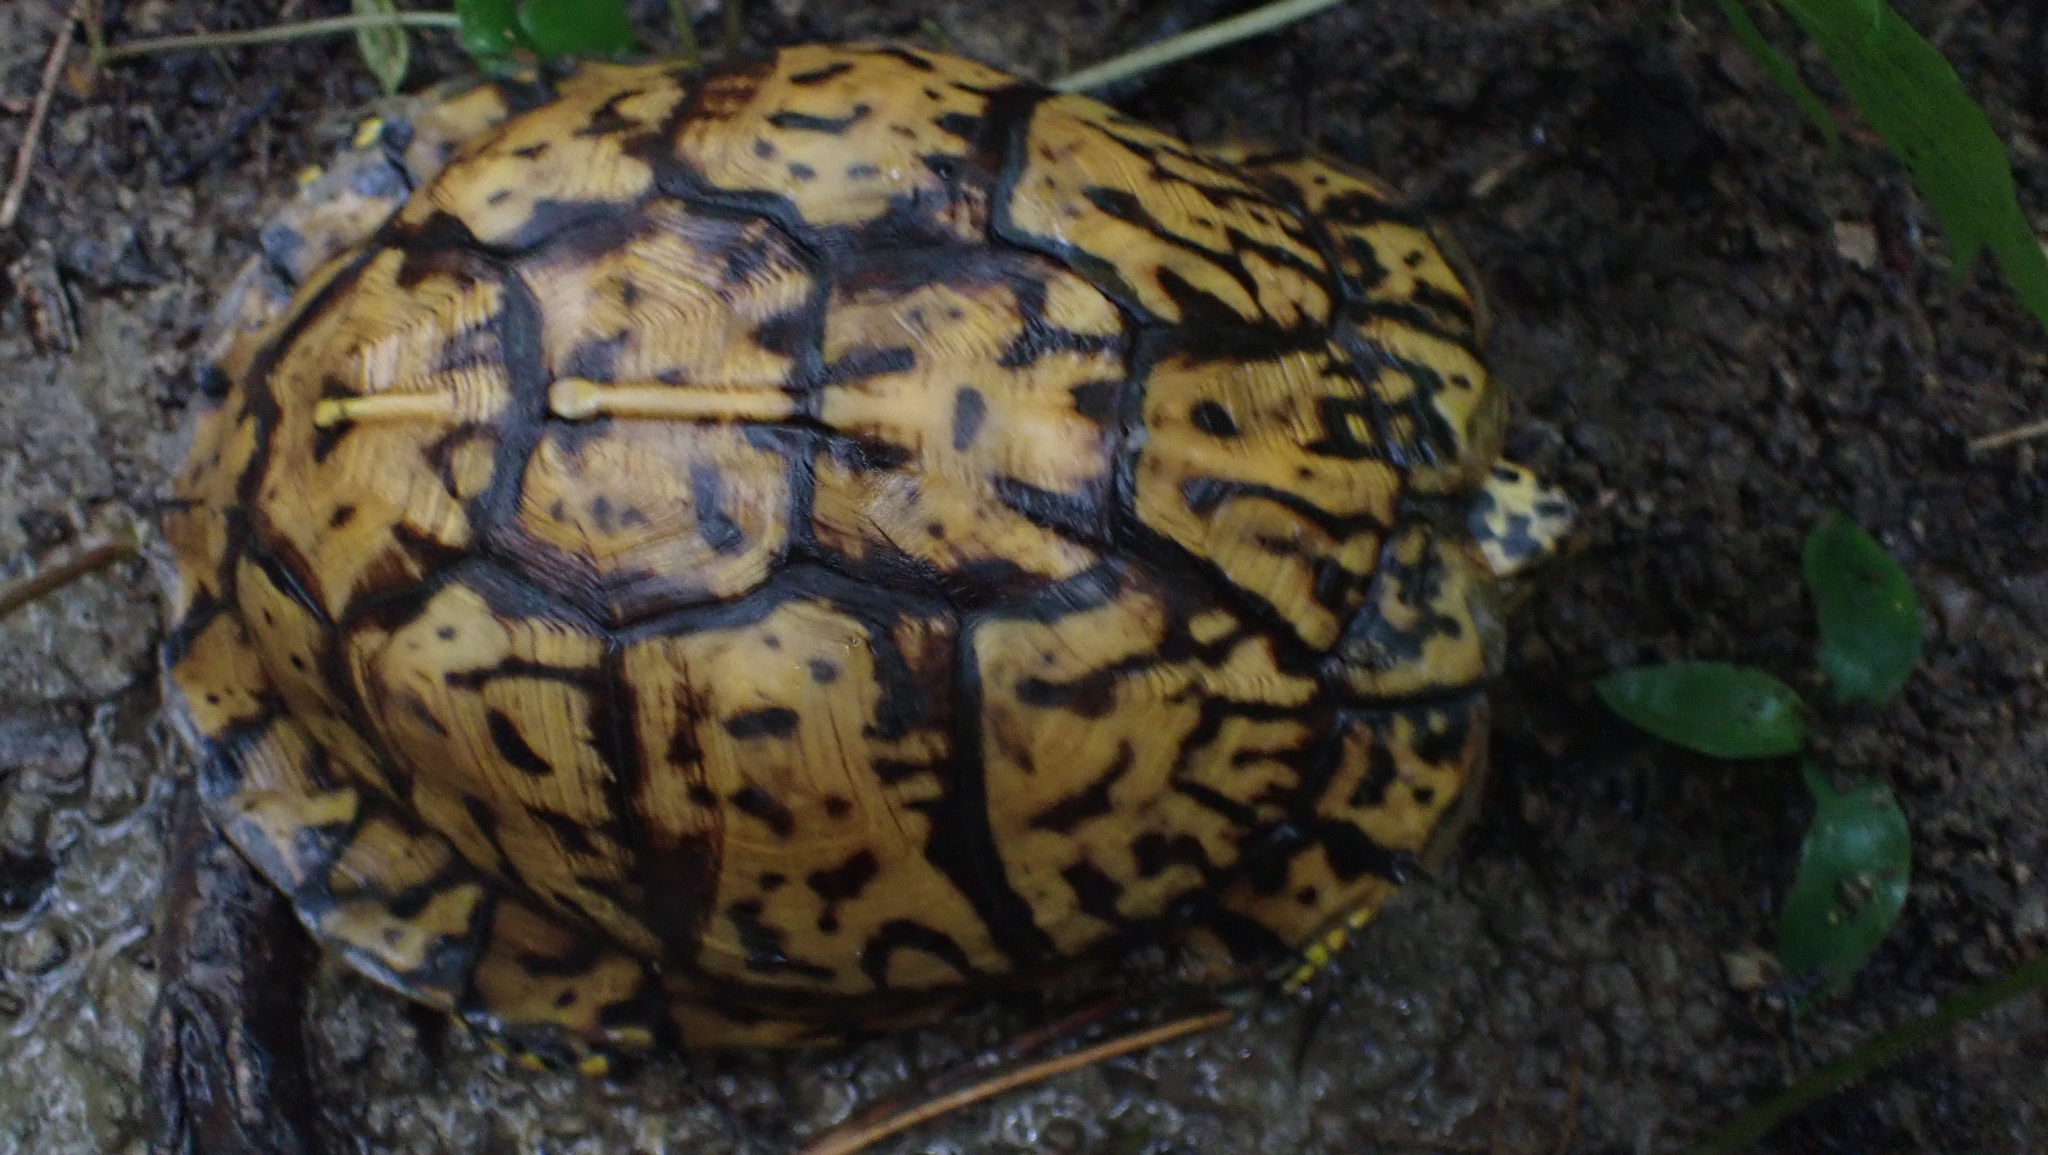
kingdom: Animalia
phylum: Chordata
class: Testudines
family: Emydidae
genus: Terrapene
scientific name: Terrapene carolina
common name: Common box turtle
